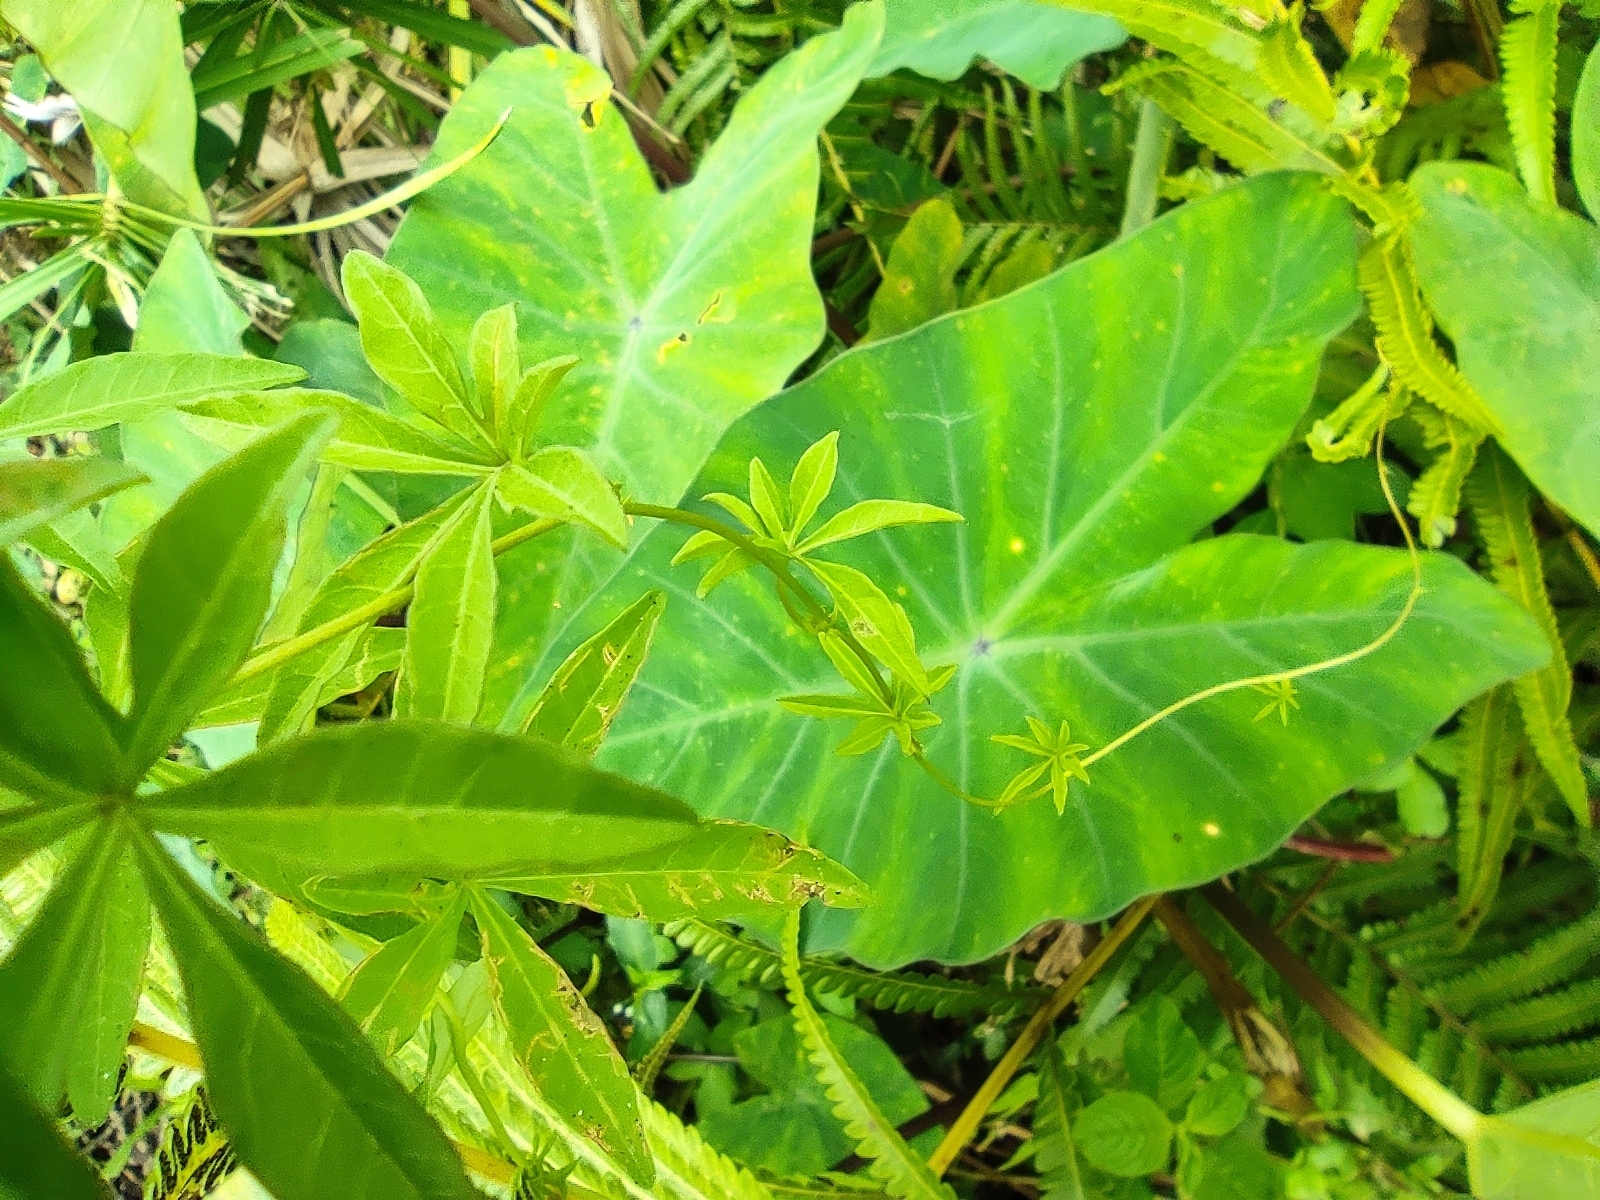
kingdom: Plantae
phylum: Tracheophyta
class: Magnoliopsida
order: Solanales
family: Convolvulaceae
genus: Ipomoea
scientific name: Ipomoea cairica
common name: Mile a minute vine
